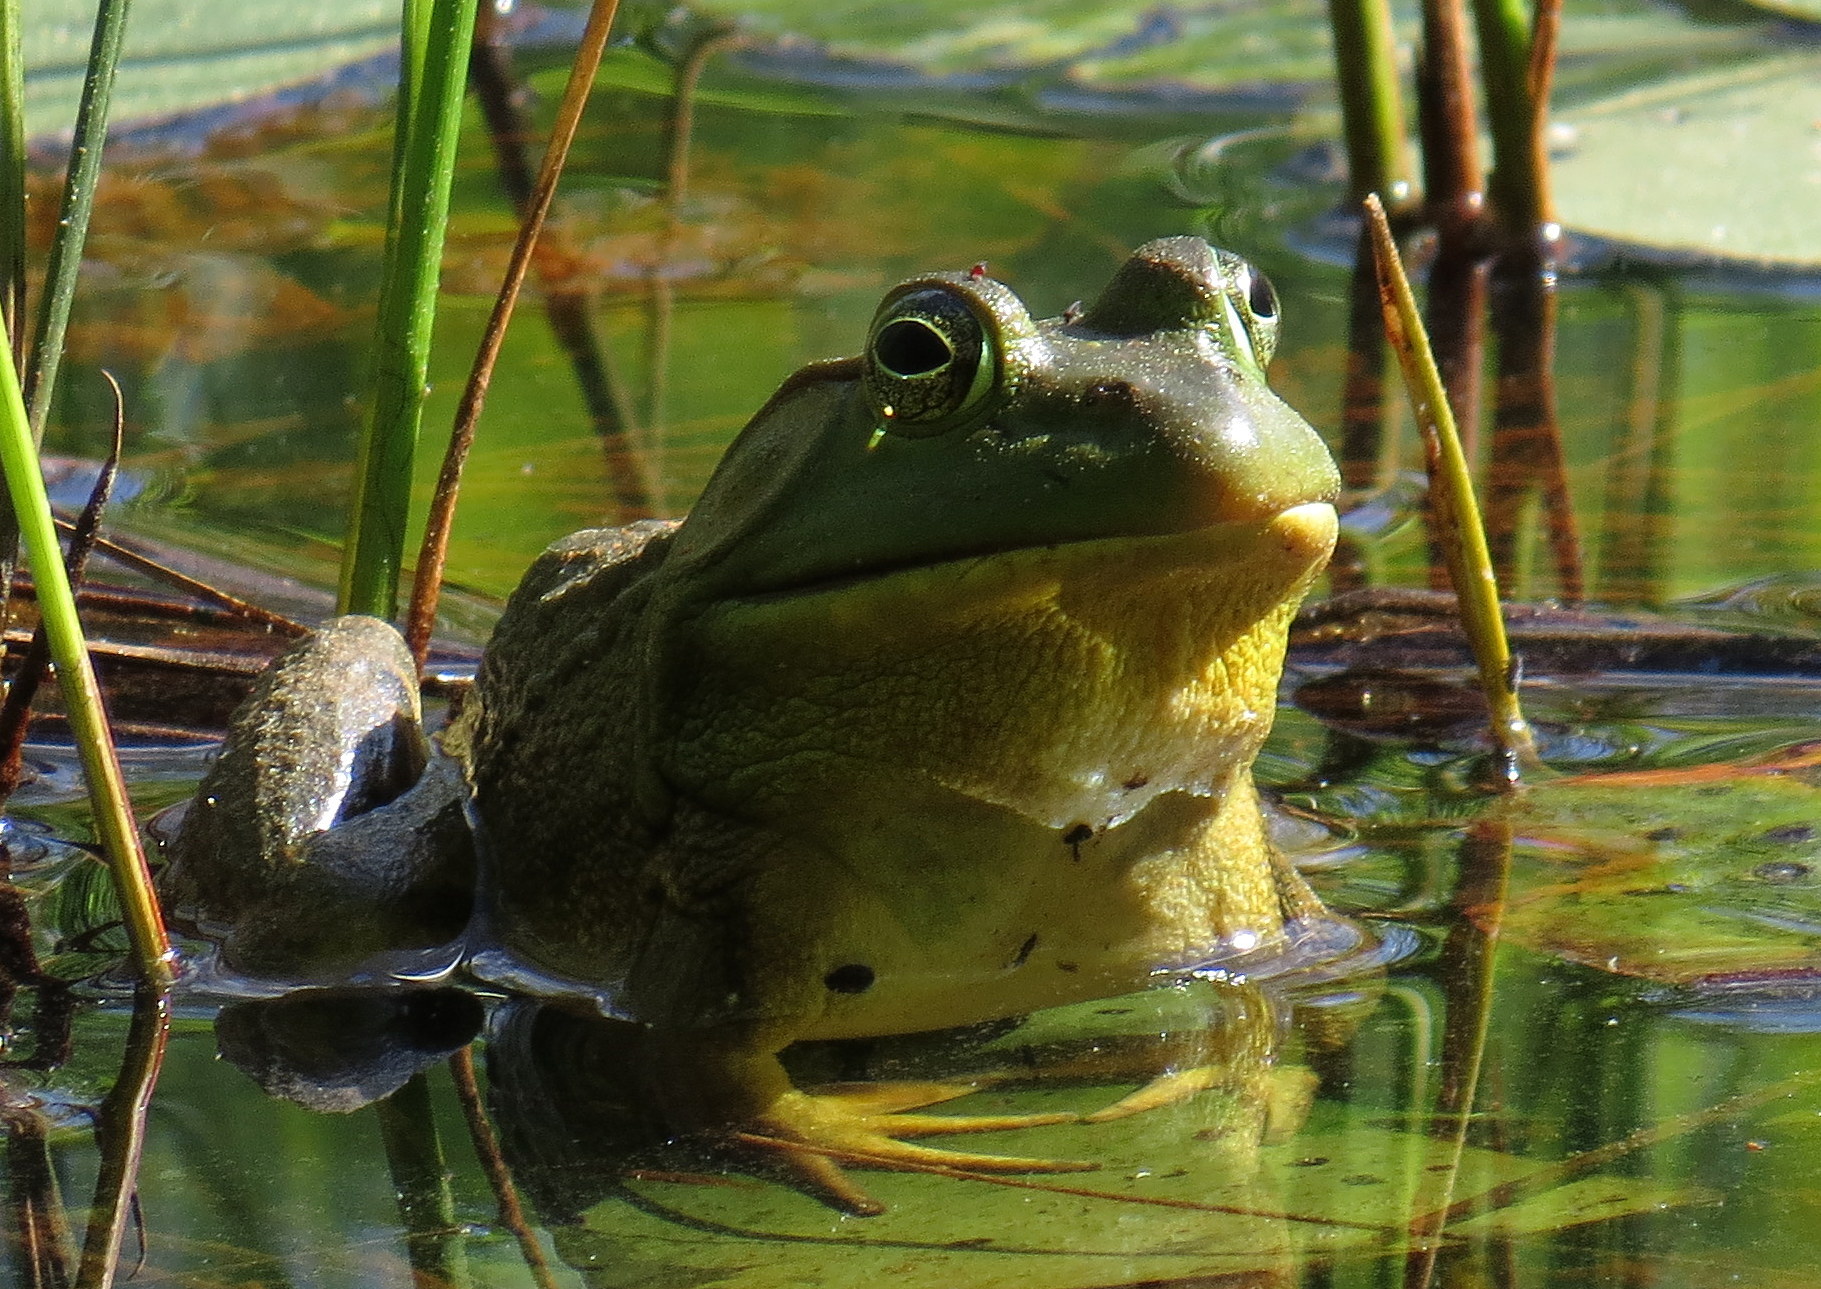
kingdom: Animalia
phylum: Chordata
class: Amphibia
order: Anura
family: Ranidae
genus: Lithobates
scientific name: Lithobates catesbeianus
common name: American bullfrog
